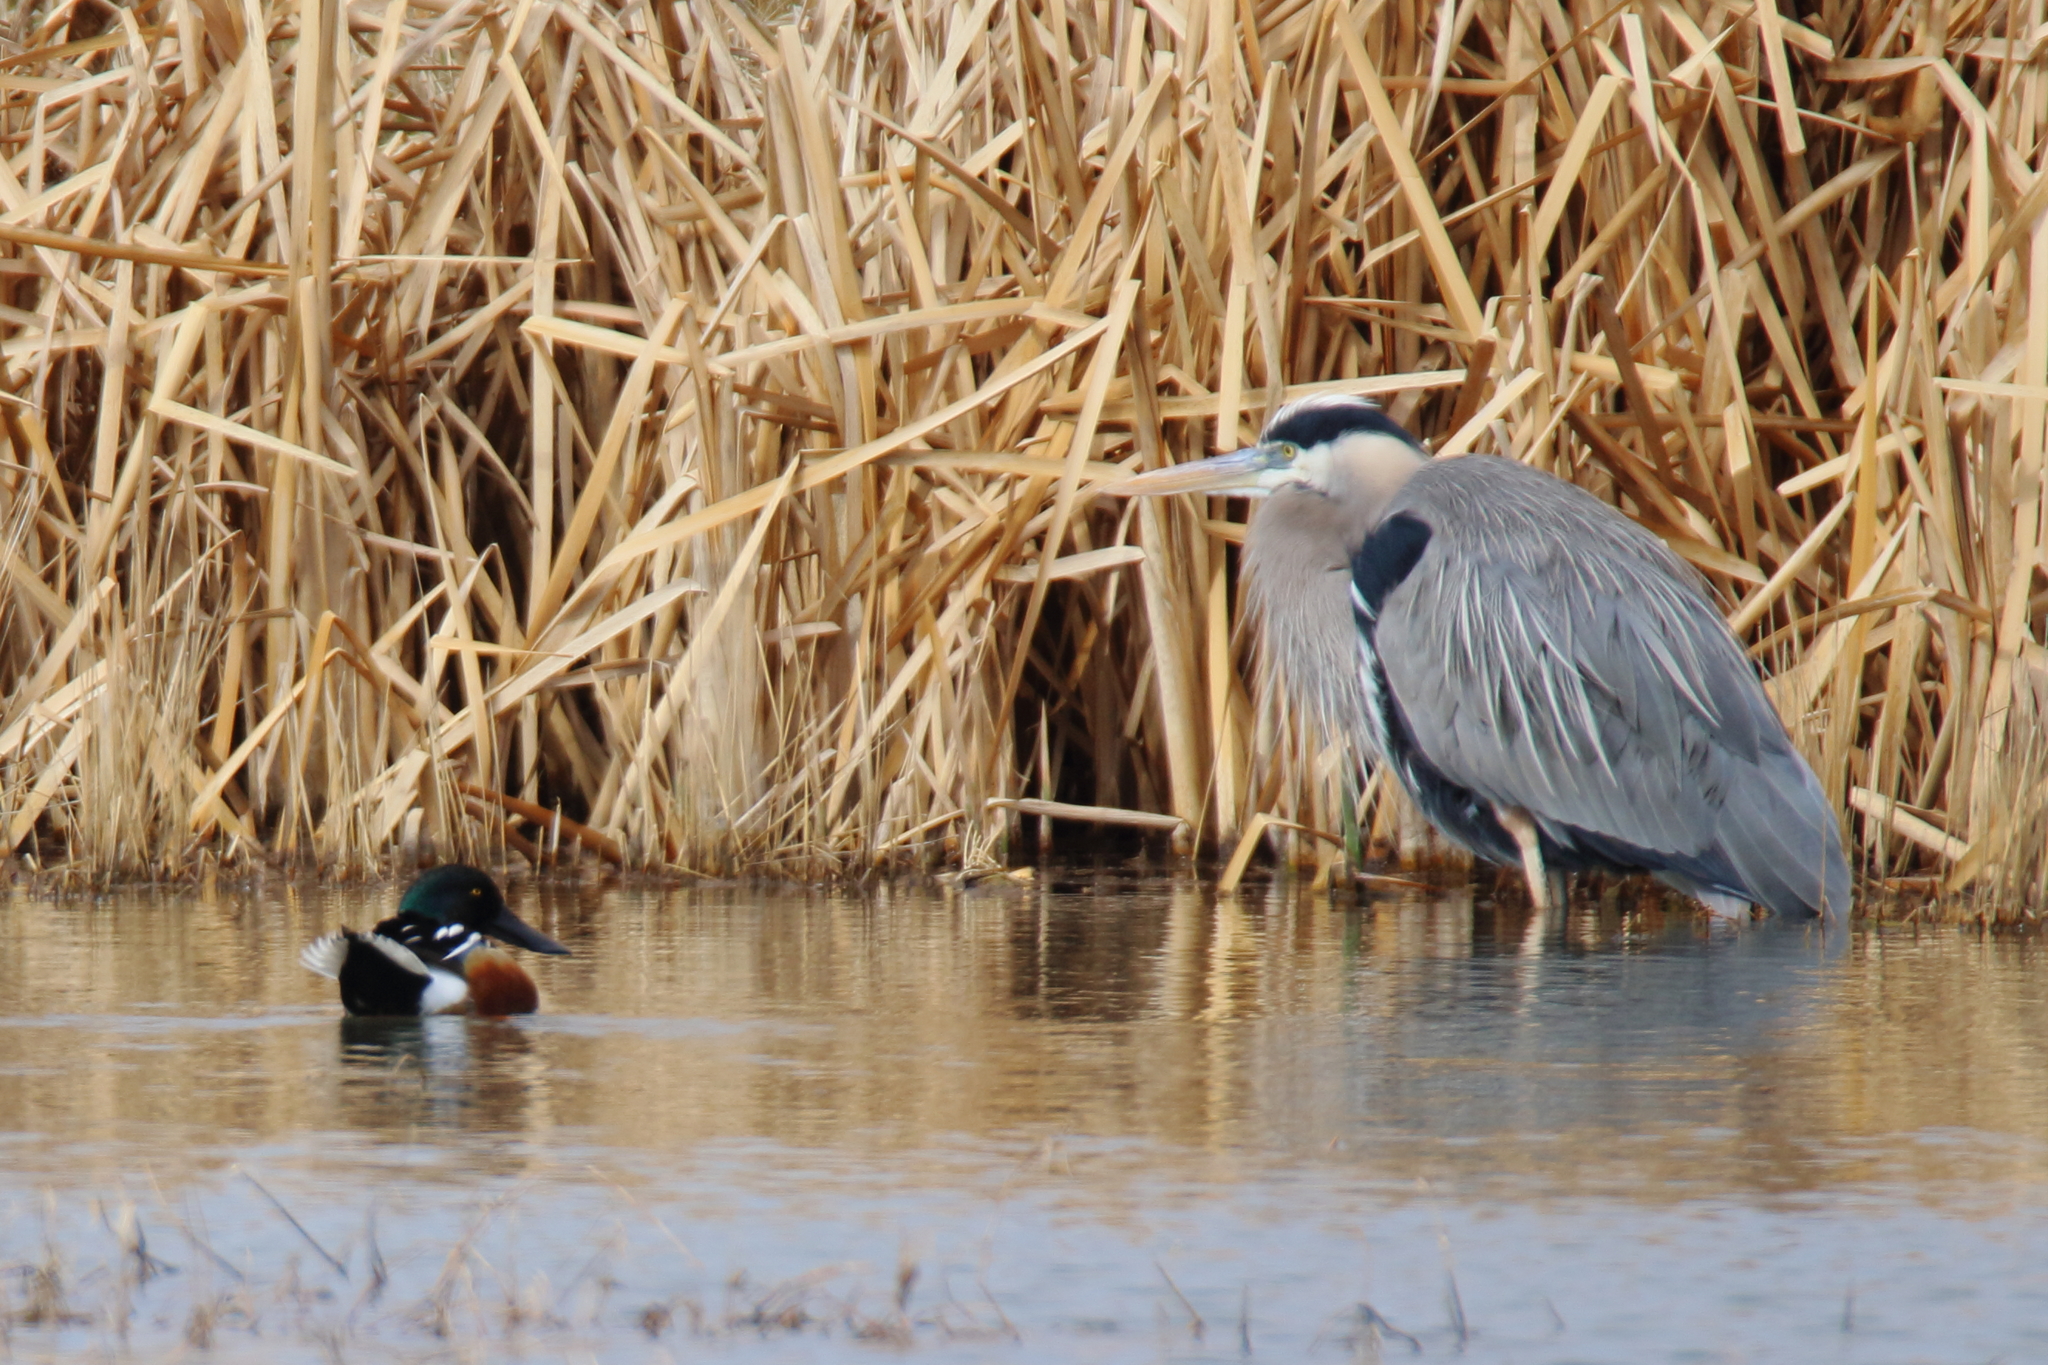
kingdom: Animalia
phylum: Chordata
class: Aves
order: Pelecaniformes
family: Ardeidae
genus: Ardea
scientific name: Ardea herodias
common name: Great blue heron
